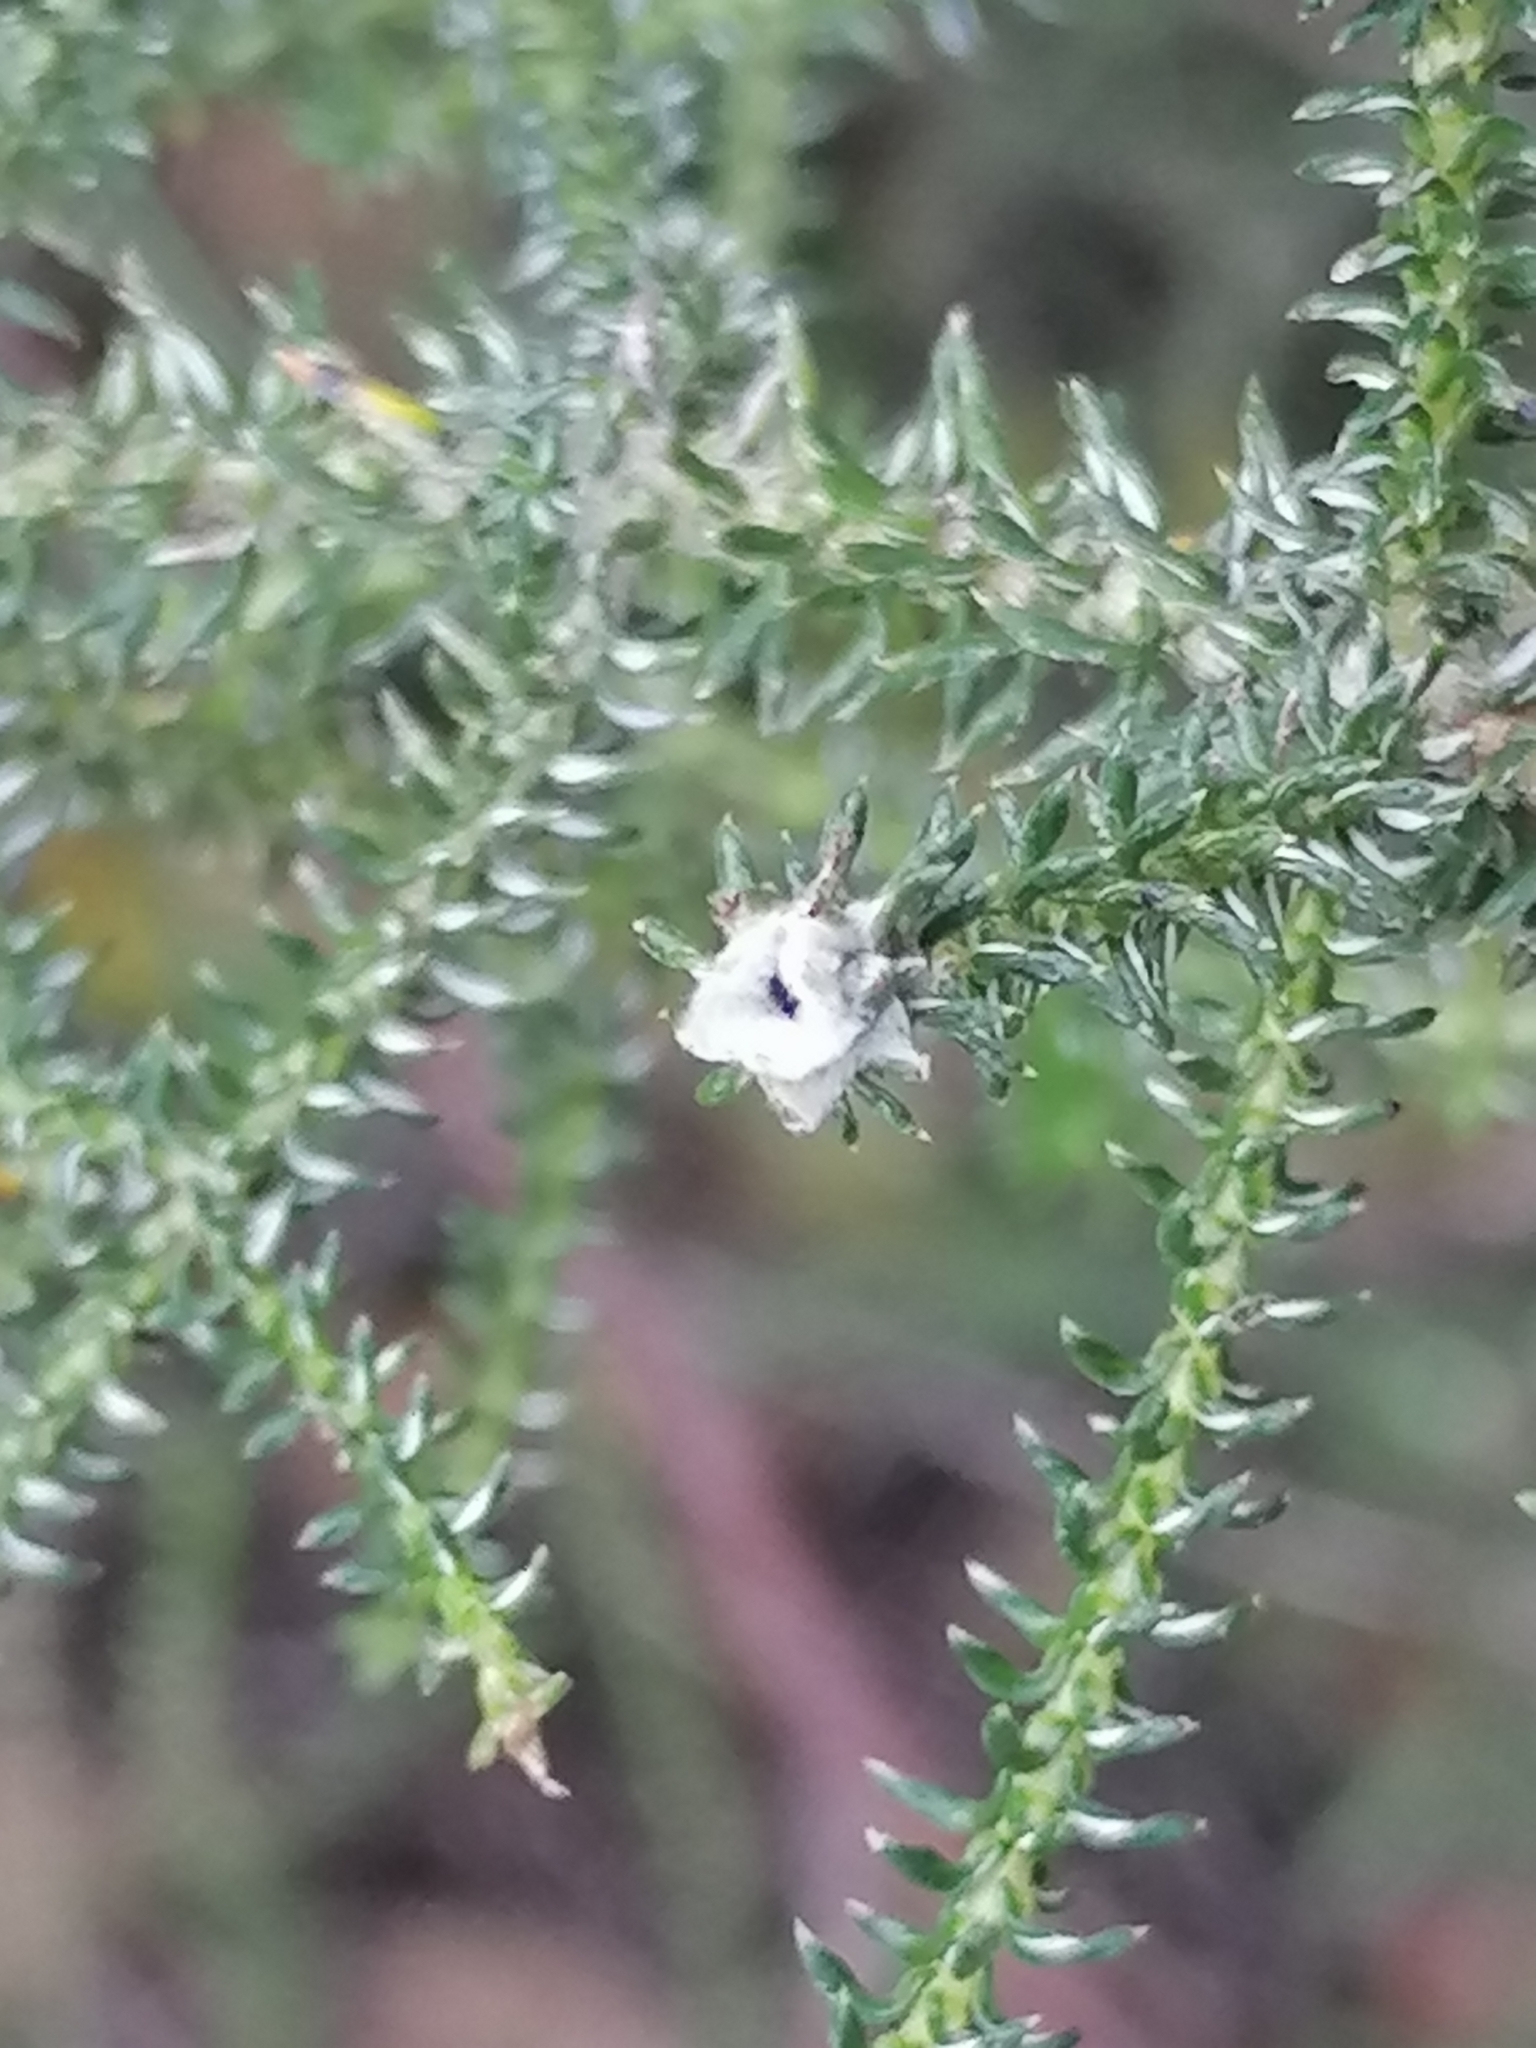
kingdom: Plantae
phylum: Tracheophyta
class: Magnoliopsida
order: Asterales
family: Asteraceae
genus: Seriphium
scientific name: Seriphium cinereum
